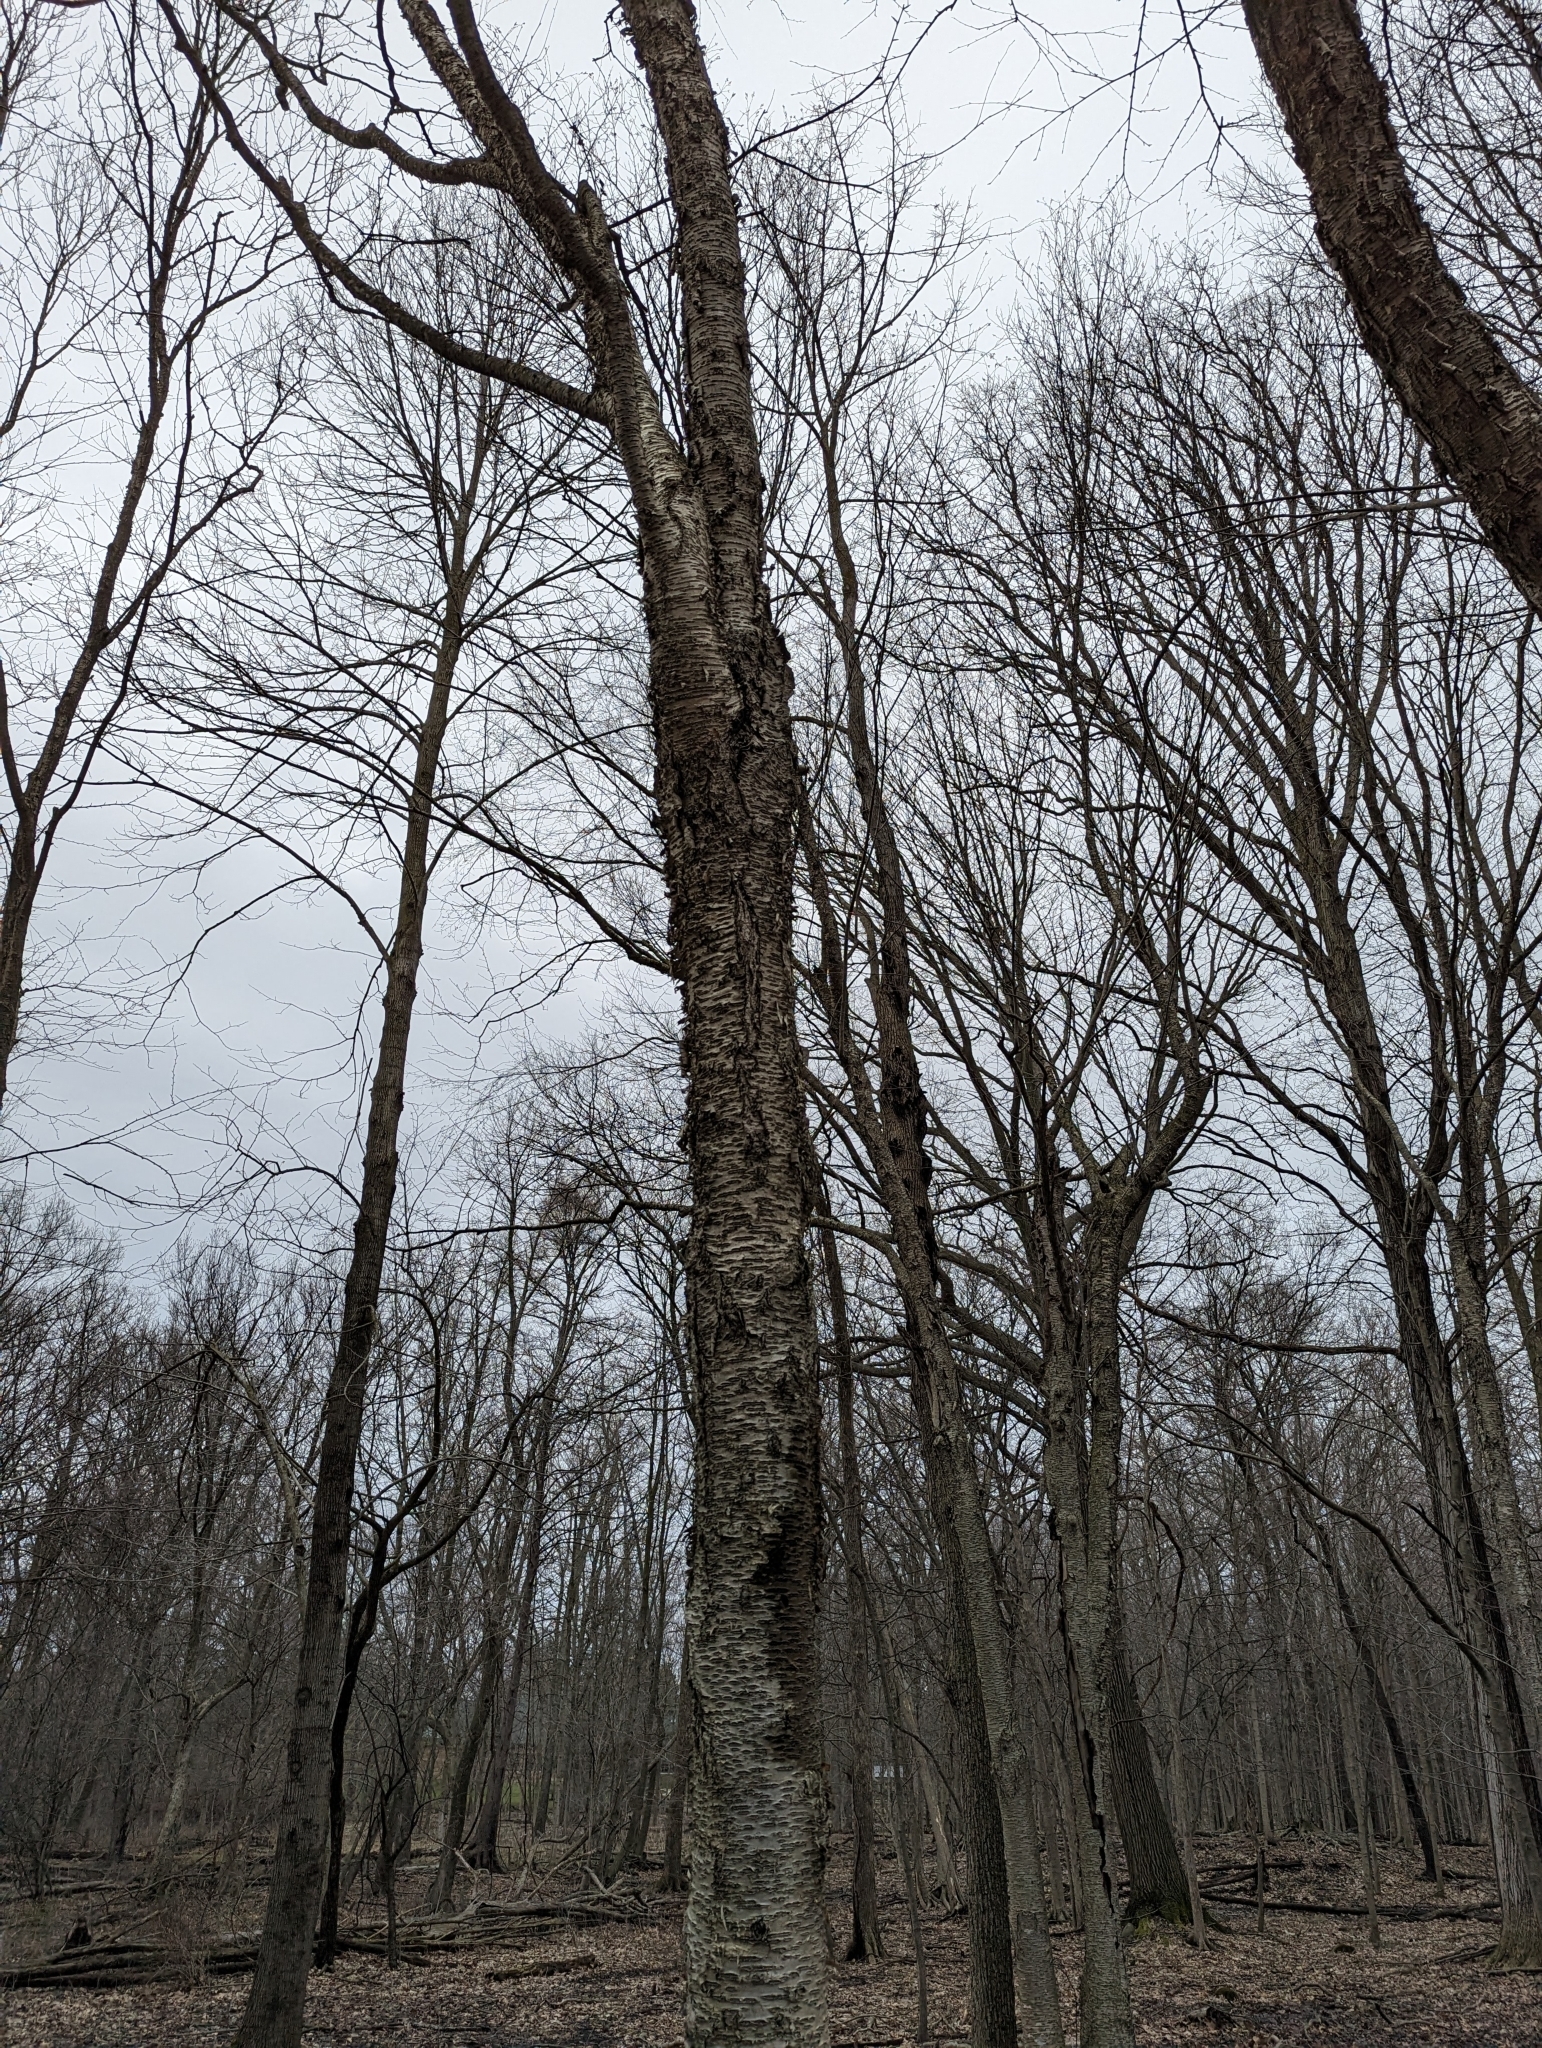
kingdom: Plantae
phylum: Tracheophyta
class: Magnoliopsida
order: Fagales
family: Betulaceae
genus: Betula
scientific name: Betula alleghaniensis
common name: Yellow birch
